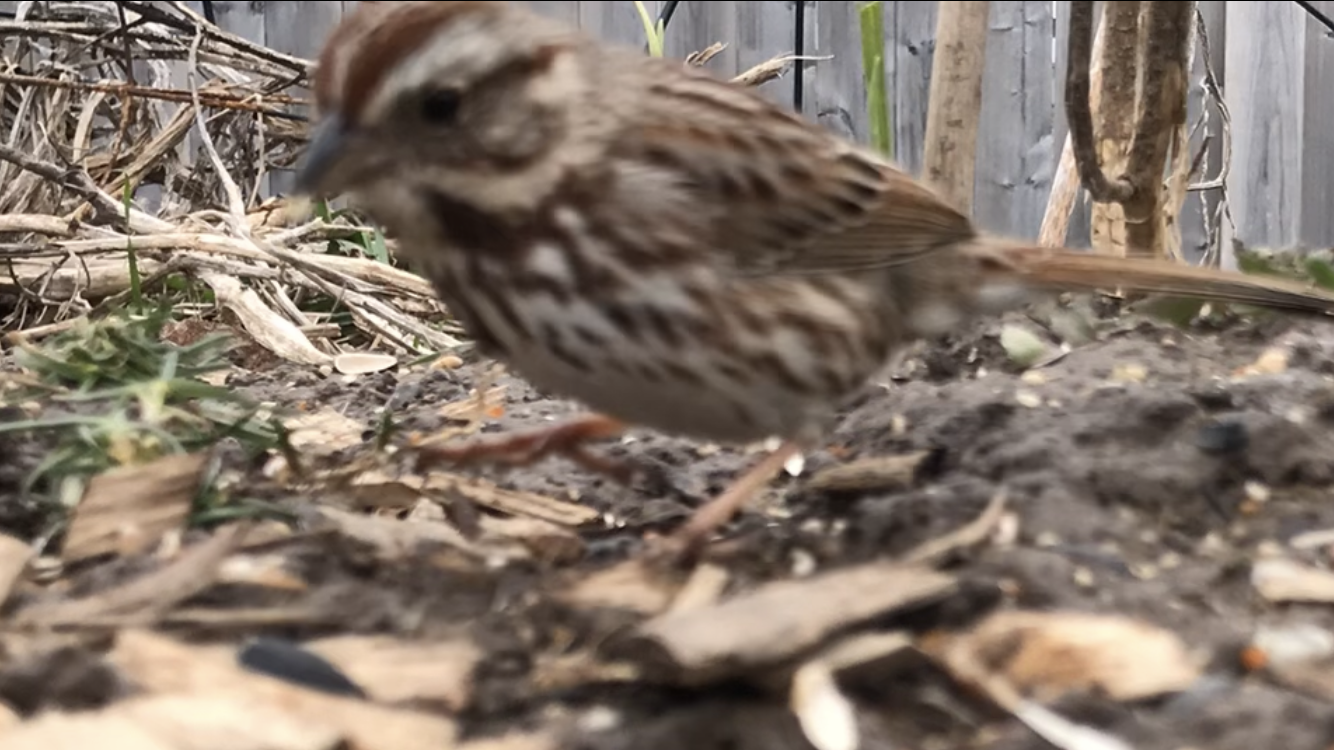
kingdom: Animalia
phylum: Chordata
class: Aves
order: Passeriformes
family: Passerellidae
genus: Melospiza
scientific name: Melospiza melodia
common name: Song sparrow
